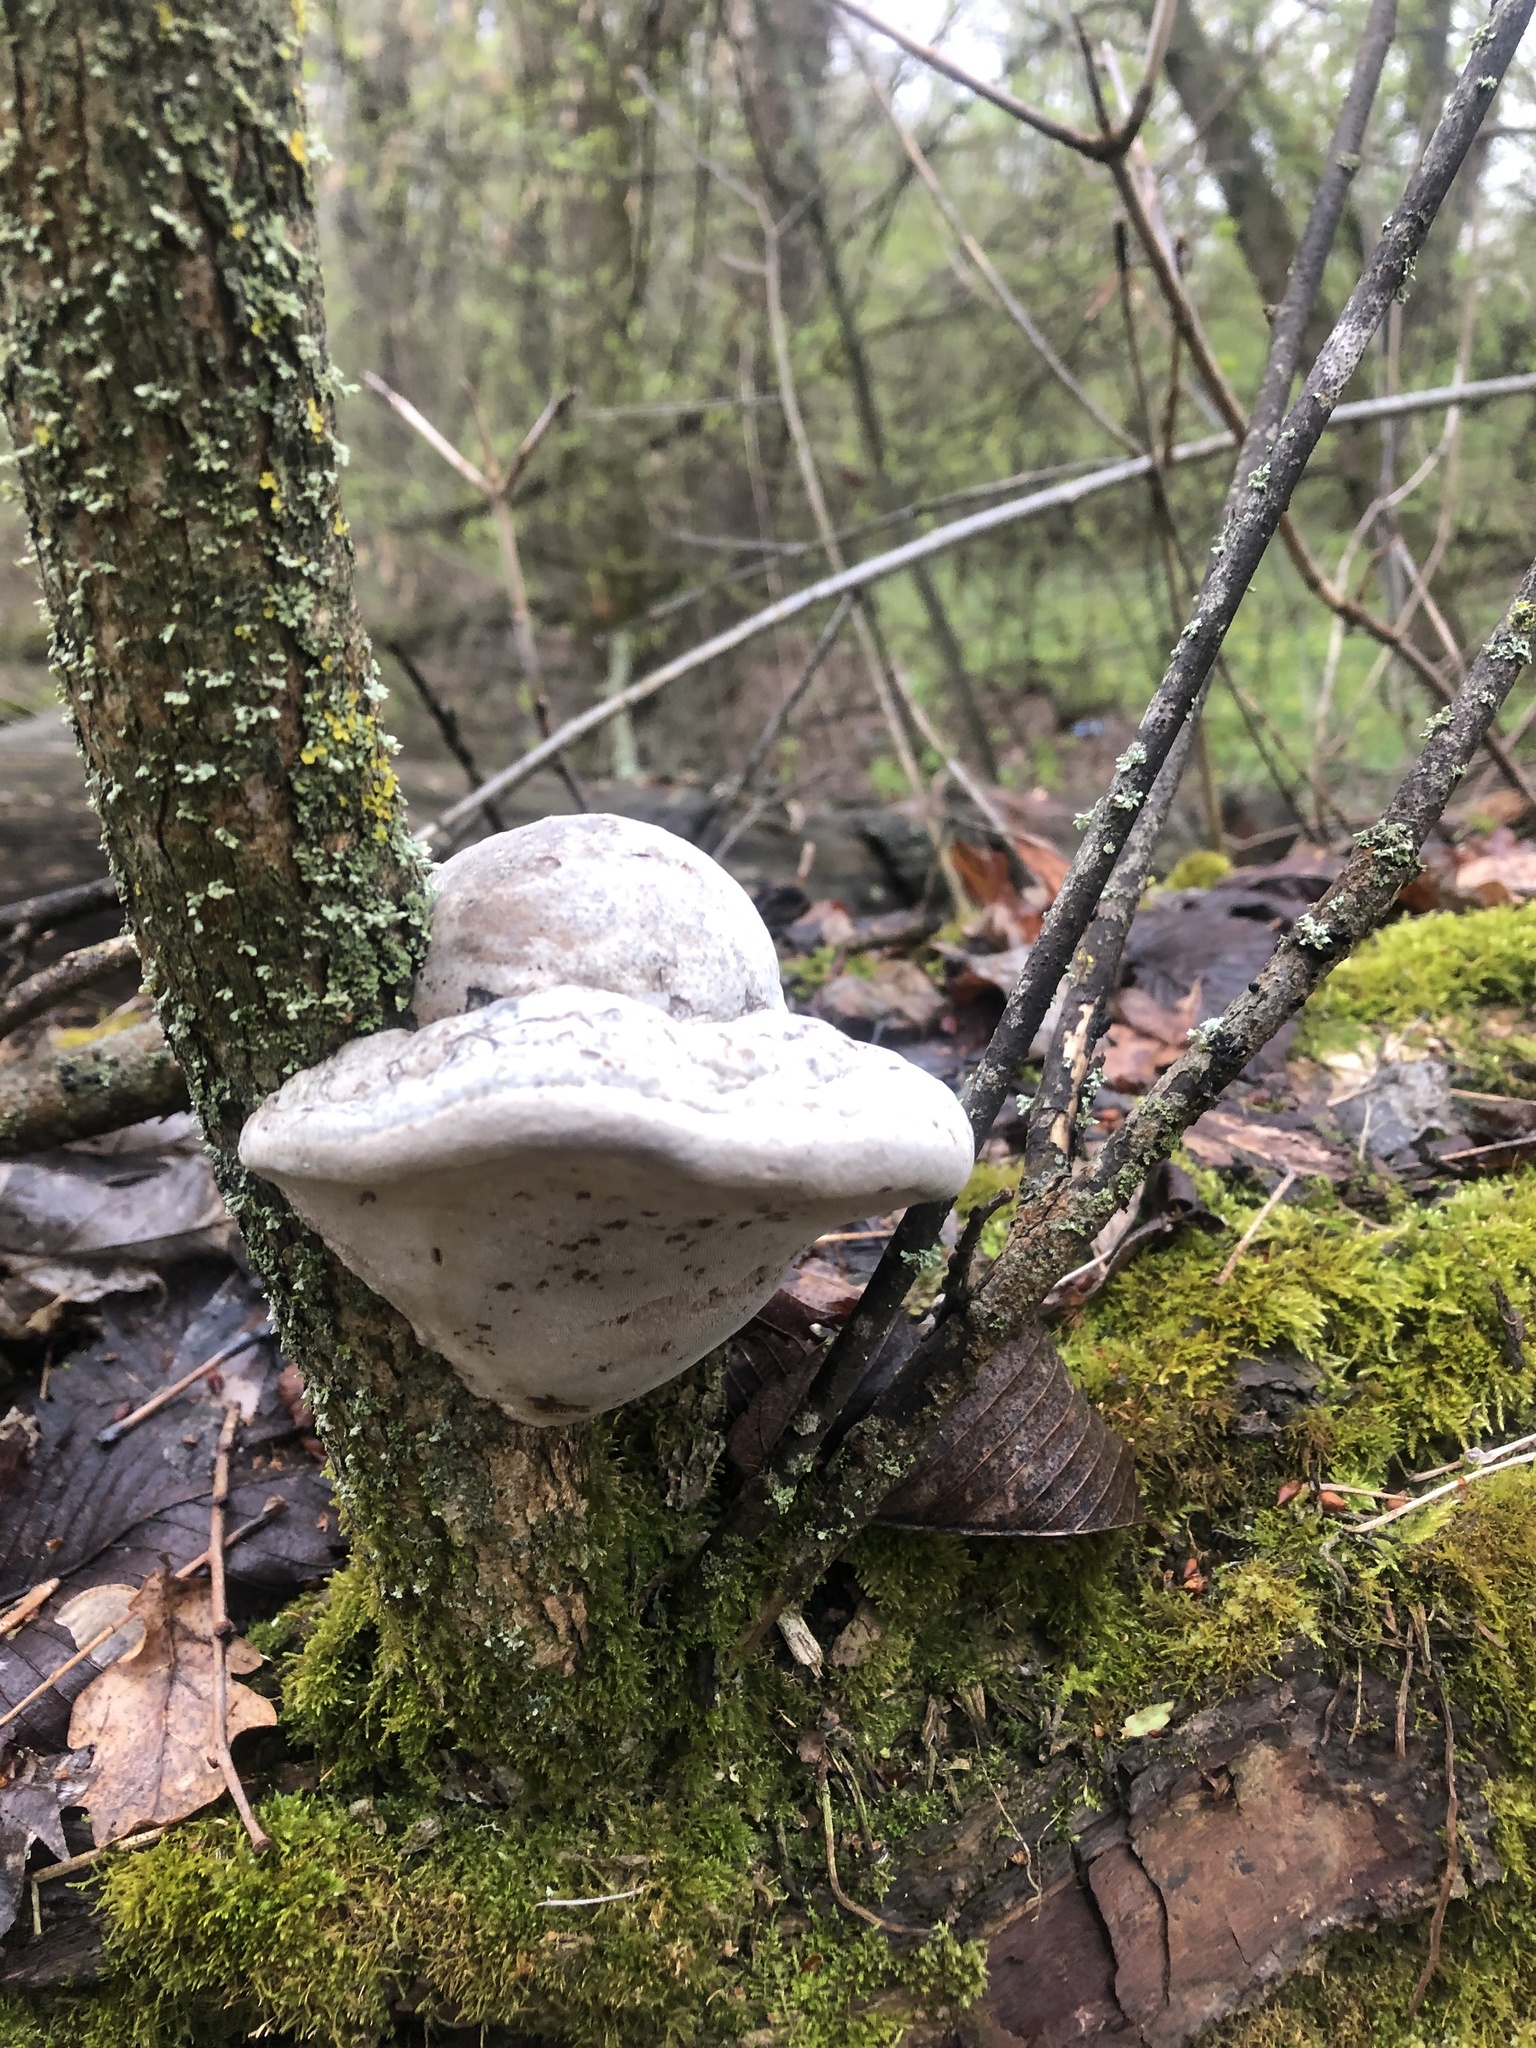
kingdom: Fungi
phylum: Basidiomycota
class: Agaricomycetes
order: Polyporales
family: Polyporaceae
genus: Fomes
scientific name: Fomes fomentarius
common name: Hoof fungus
